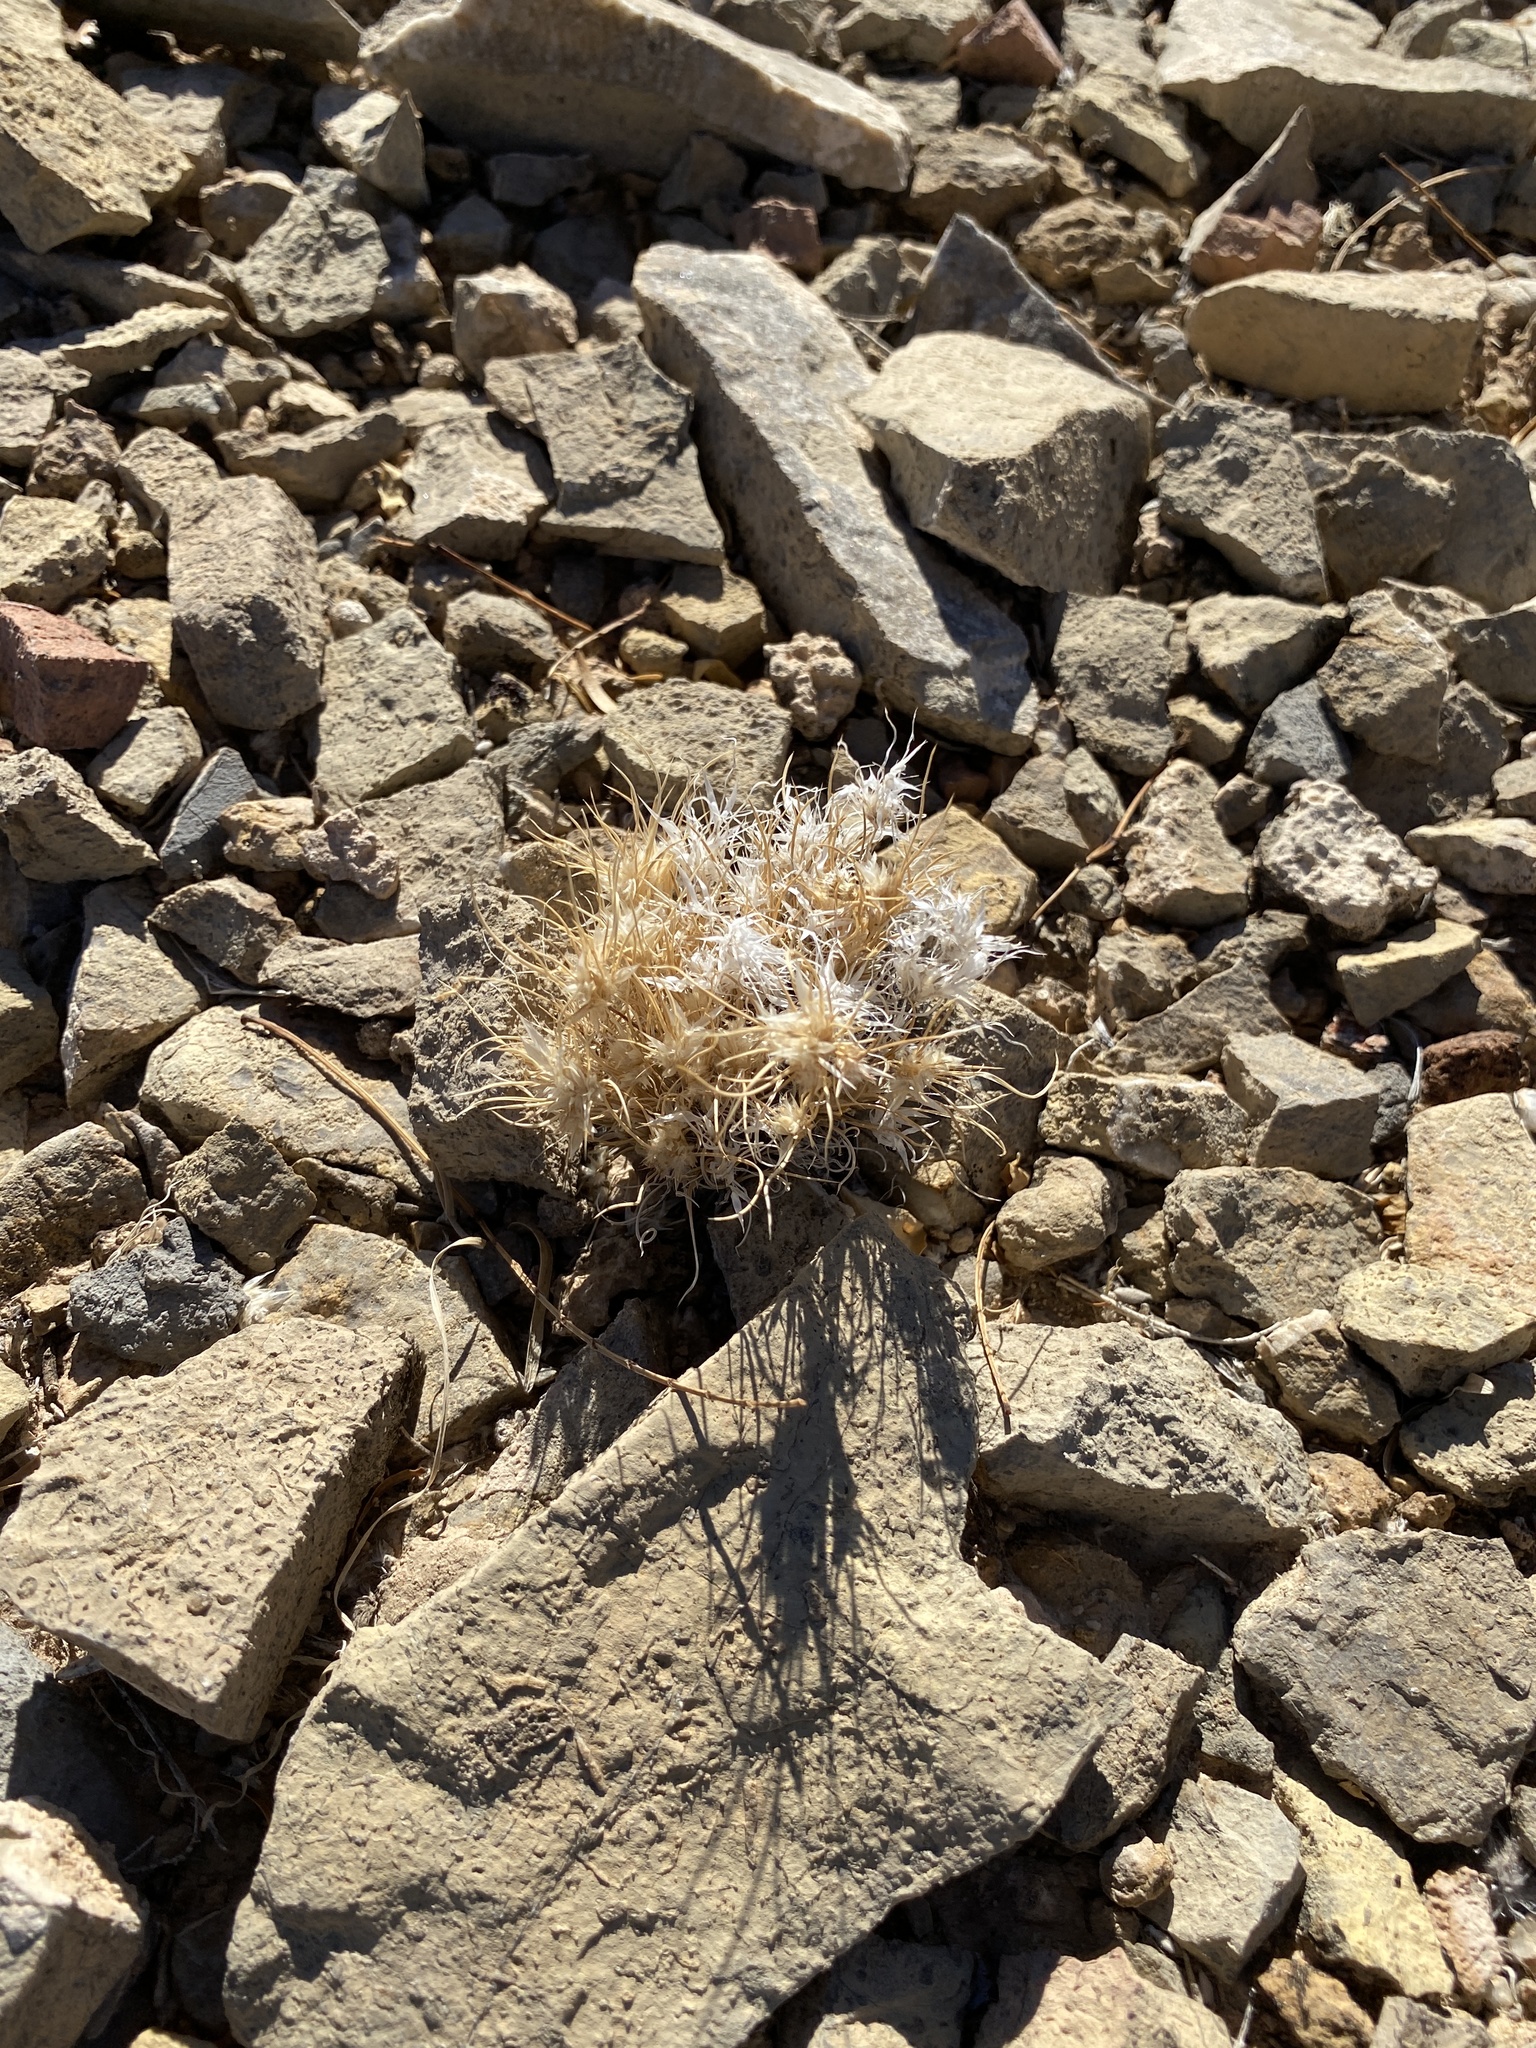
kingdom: Plantae
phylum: Tracheophyta
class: Liliopsida
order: Poales
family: Poaceae
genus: Dasyochloa
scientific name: Dasyochloa pulchella
